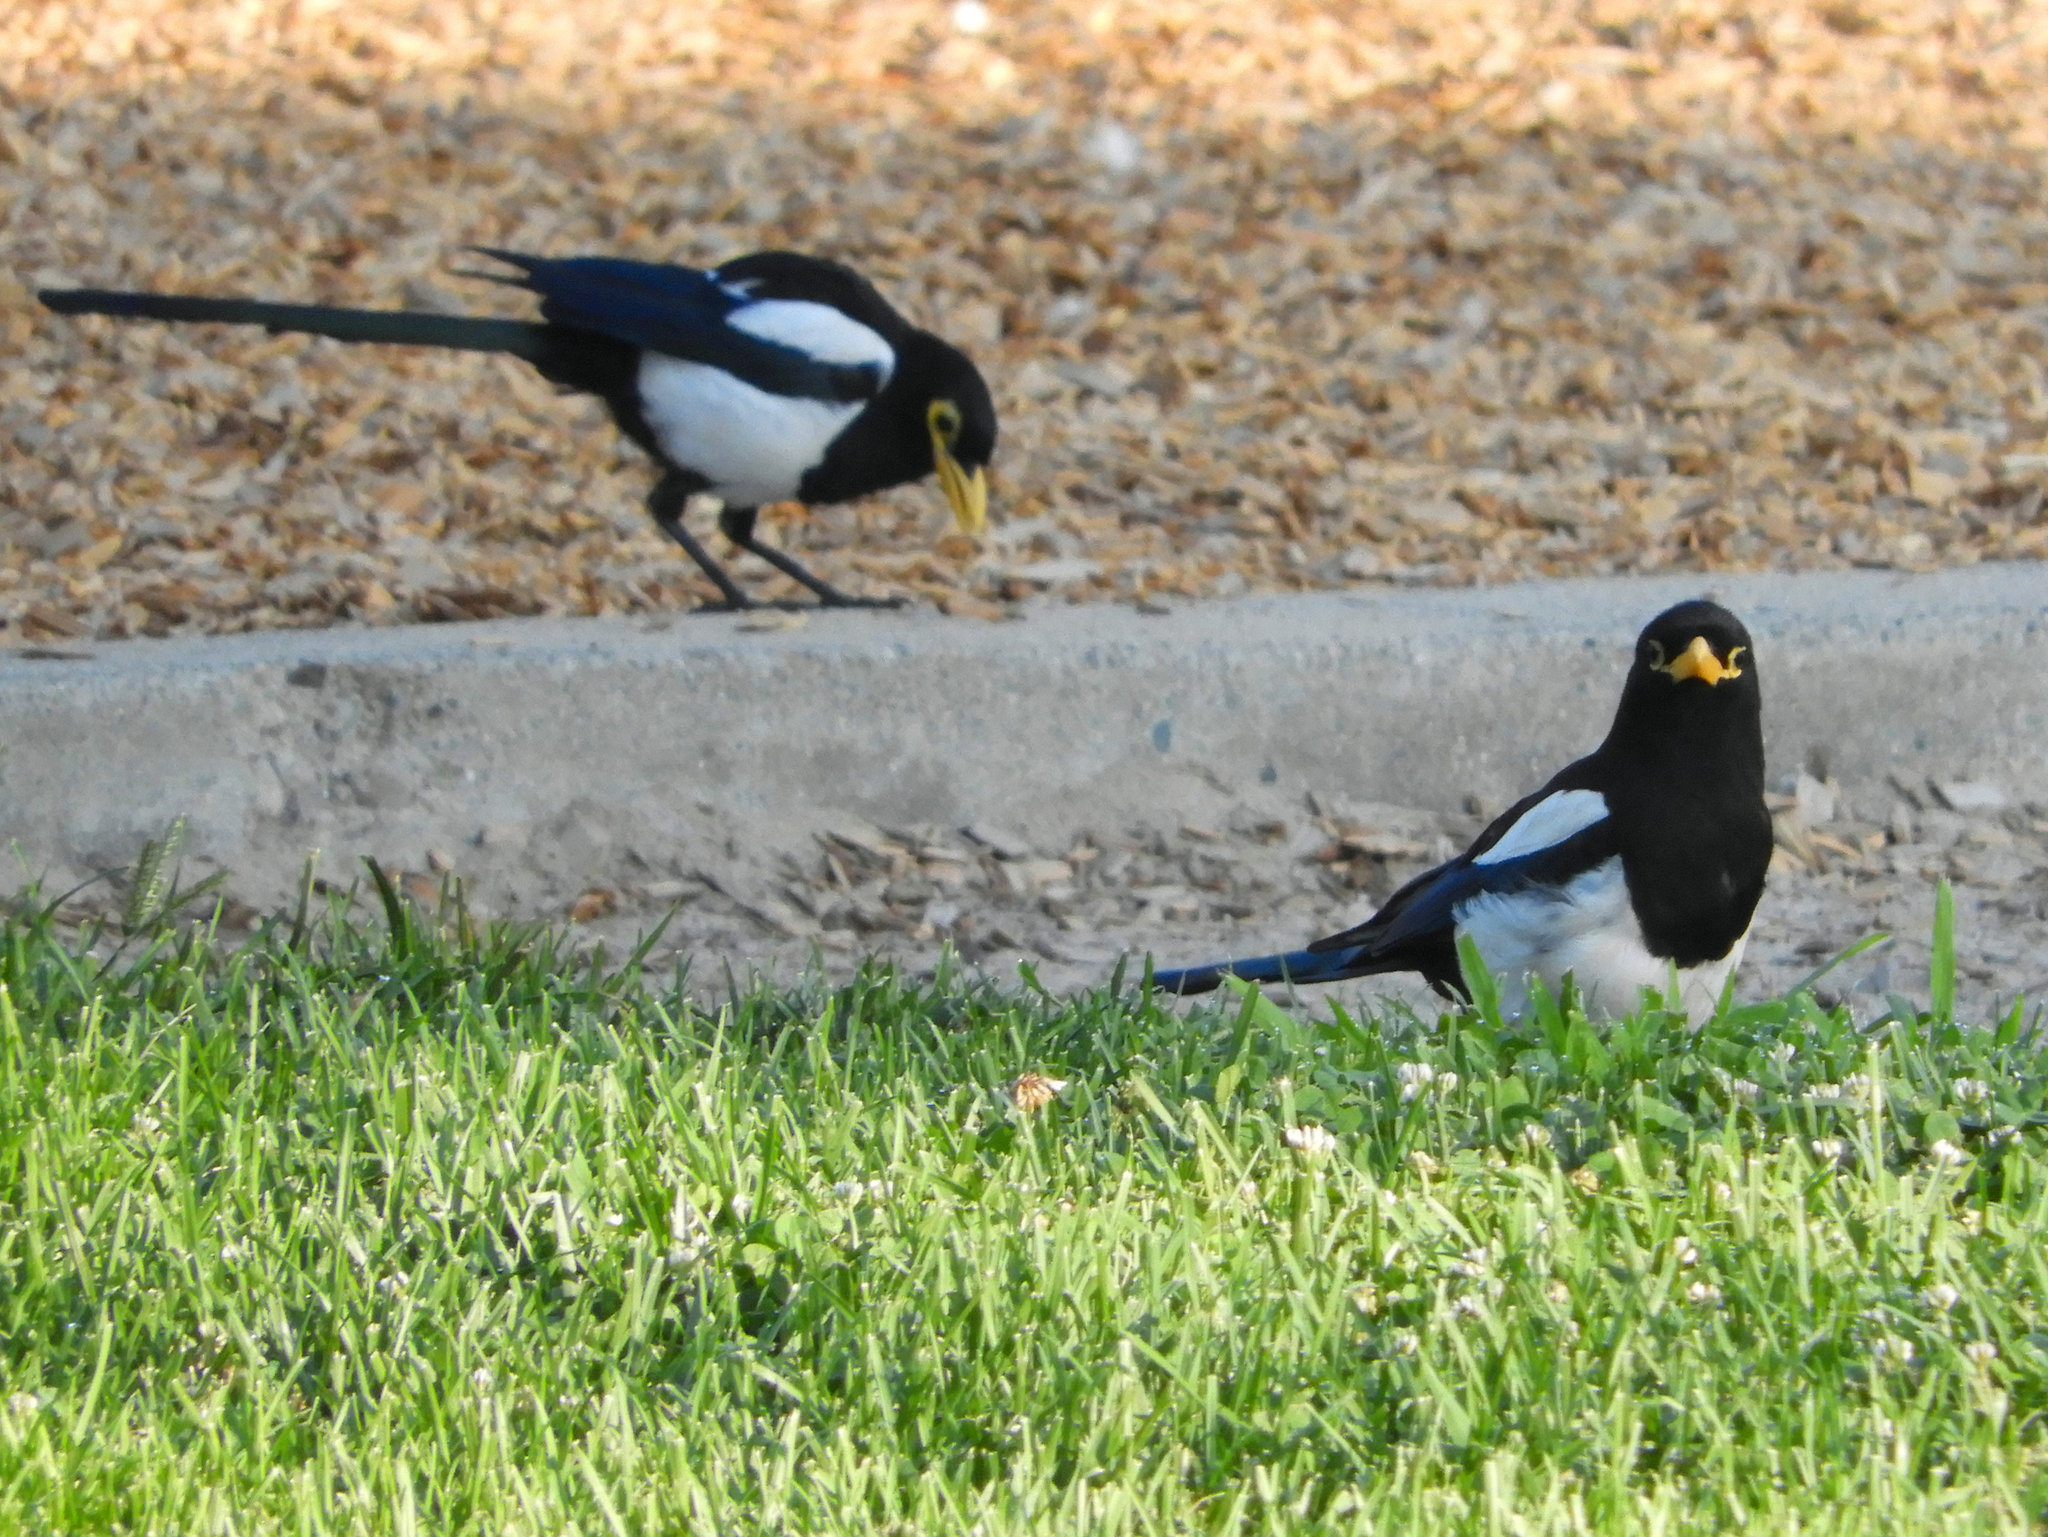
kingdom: Animalia
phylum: Chordata
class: Aves
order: Passeriformes
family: Corvidae
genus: Pica
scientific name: Pica nuttalli
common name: Yellow-billed magpie
